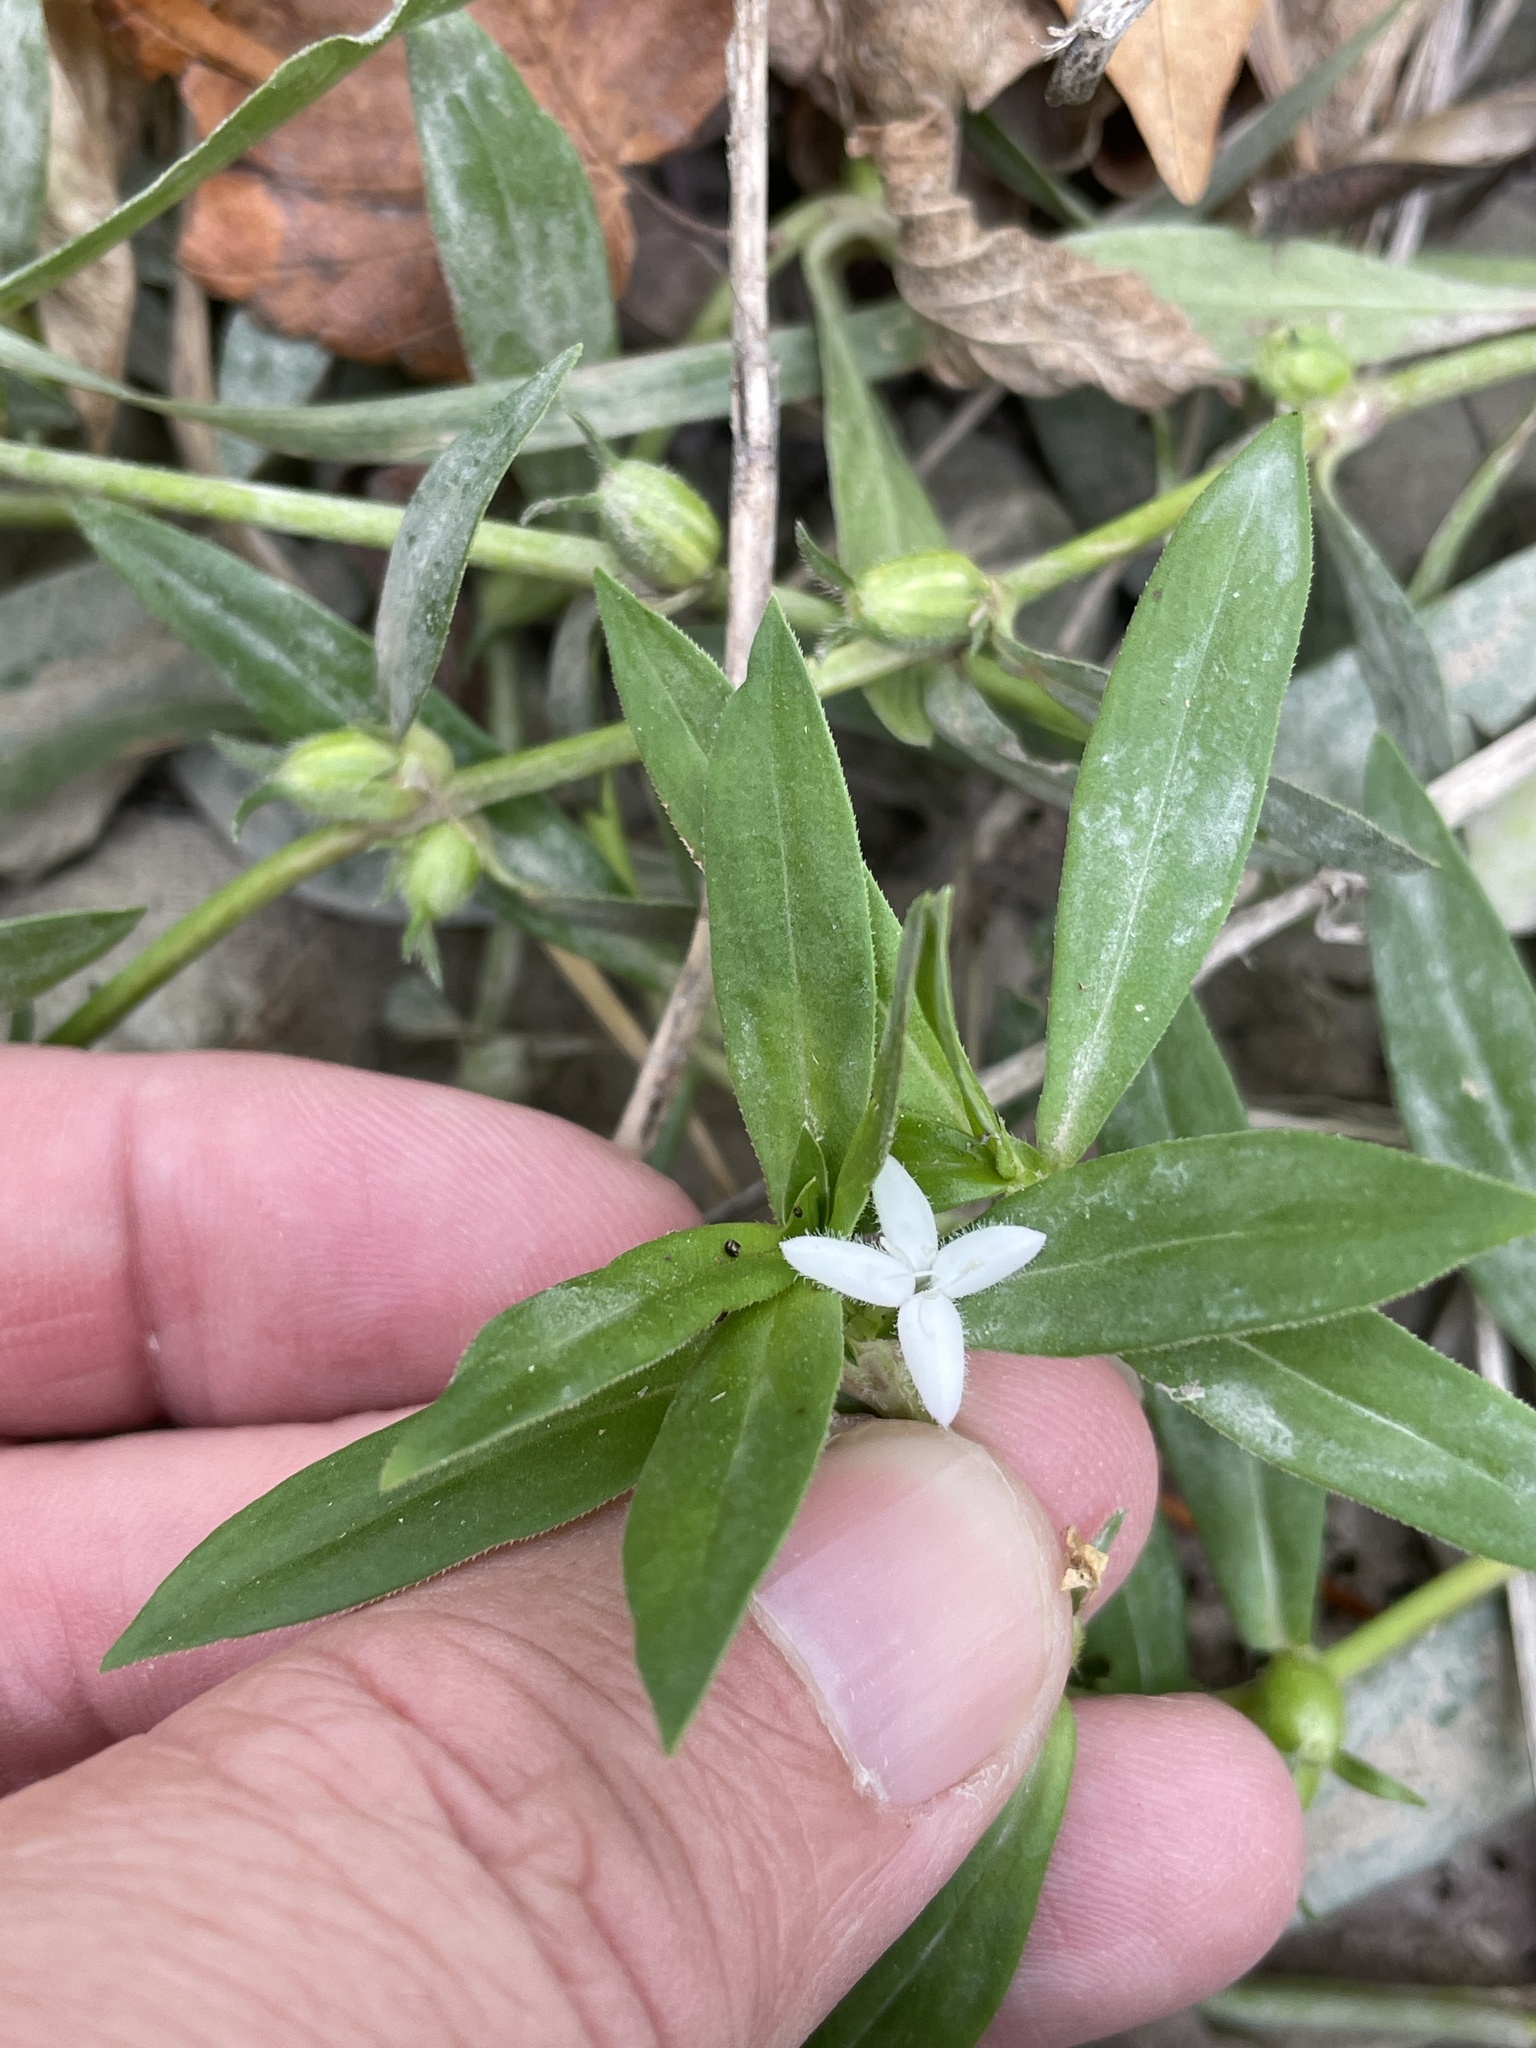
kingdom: Plantae
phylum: Tracheophyta
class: Magnoliopsida
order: Gentianales
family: Rubiaceae
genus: Diodia
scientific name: Diodia virginiana
